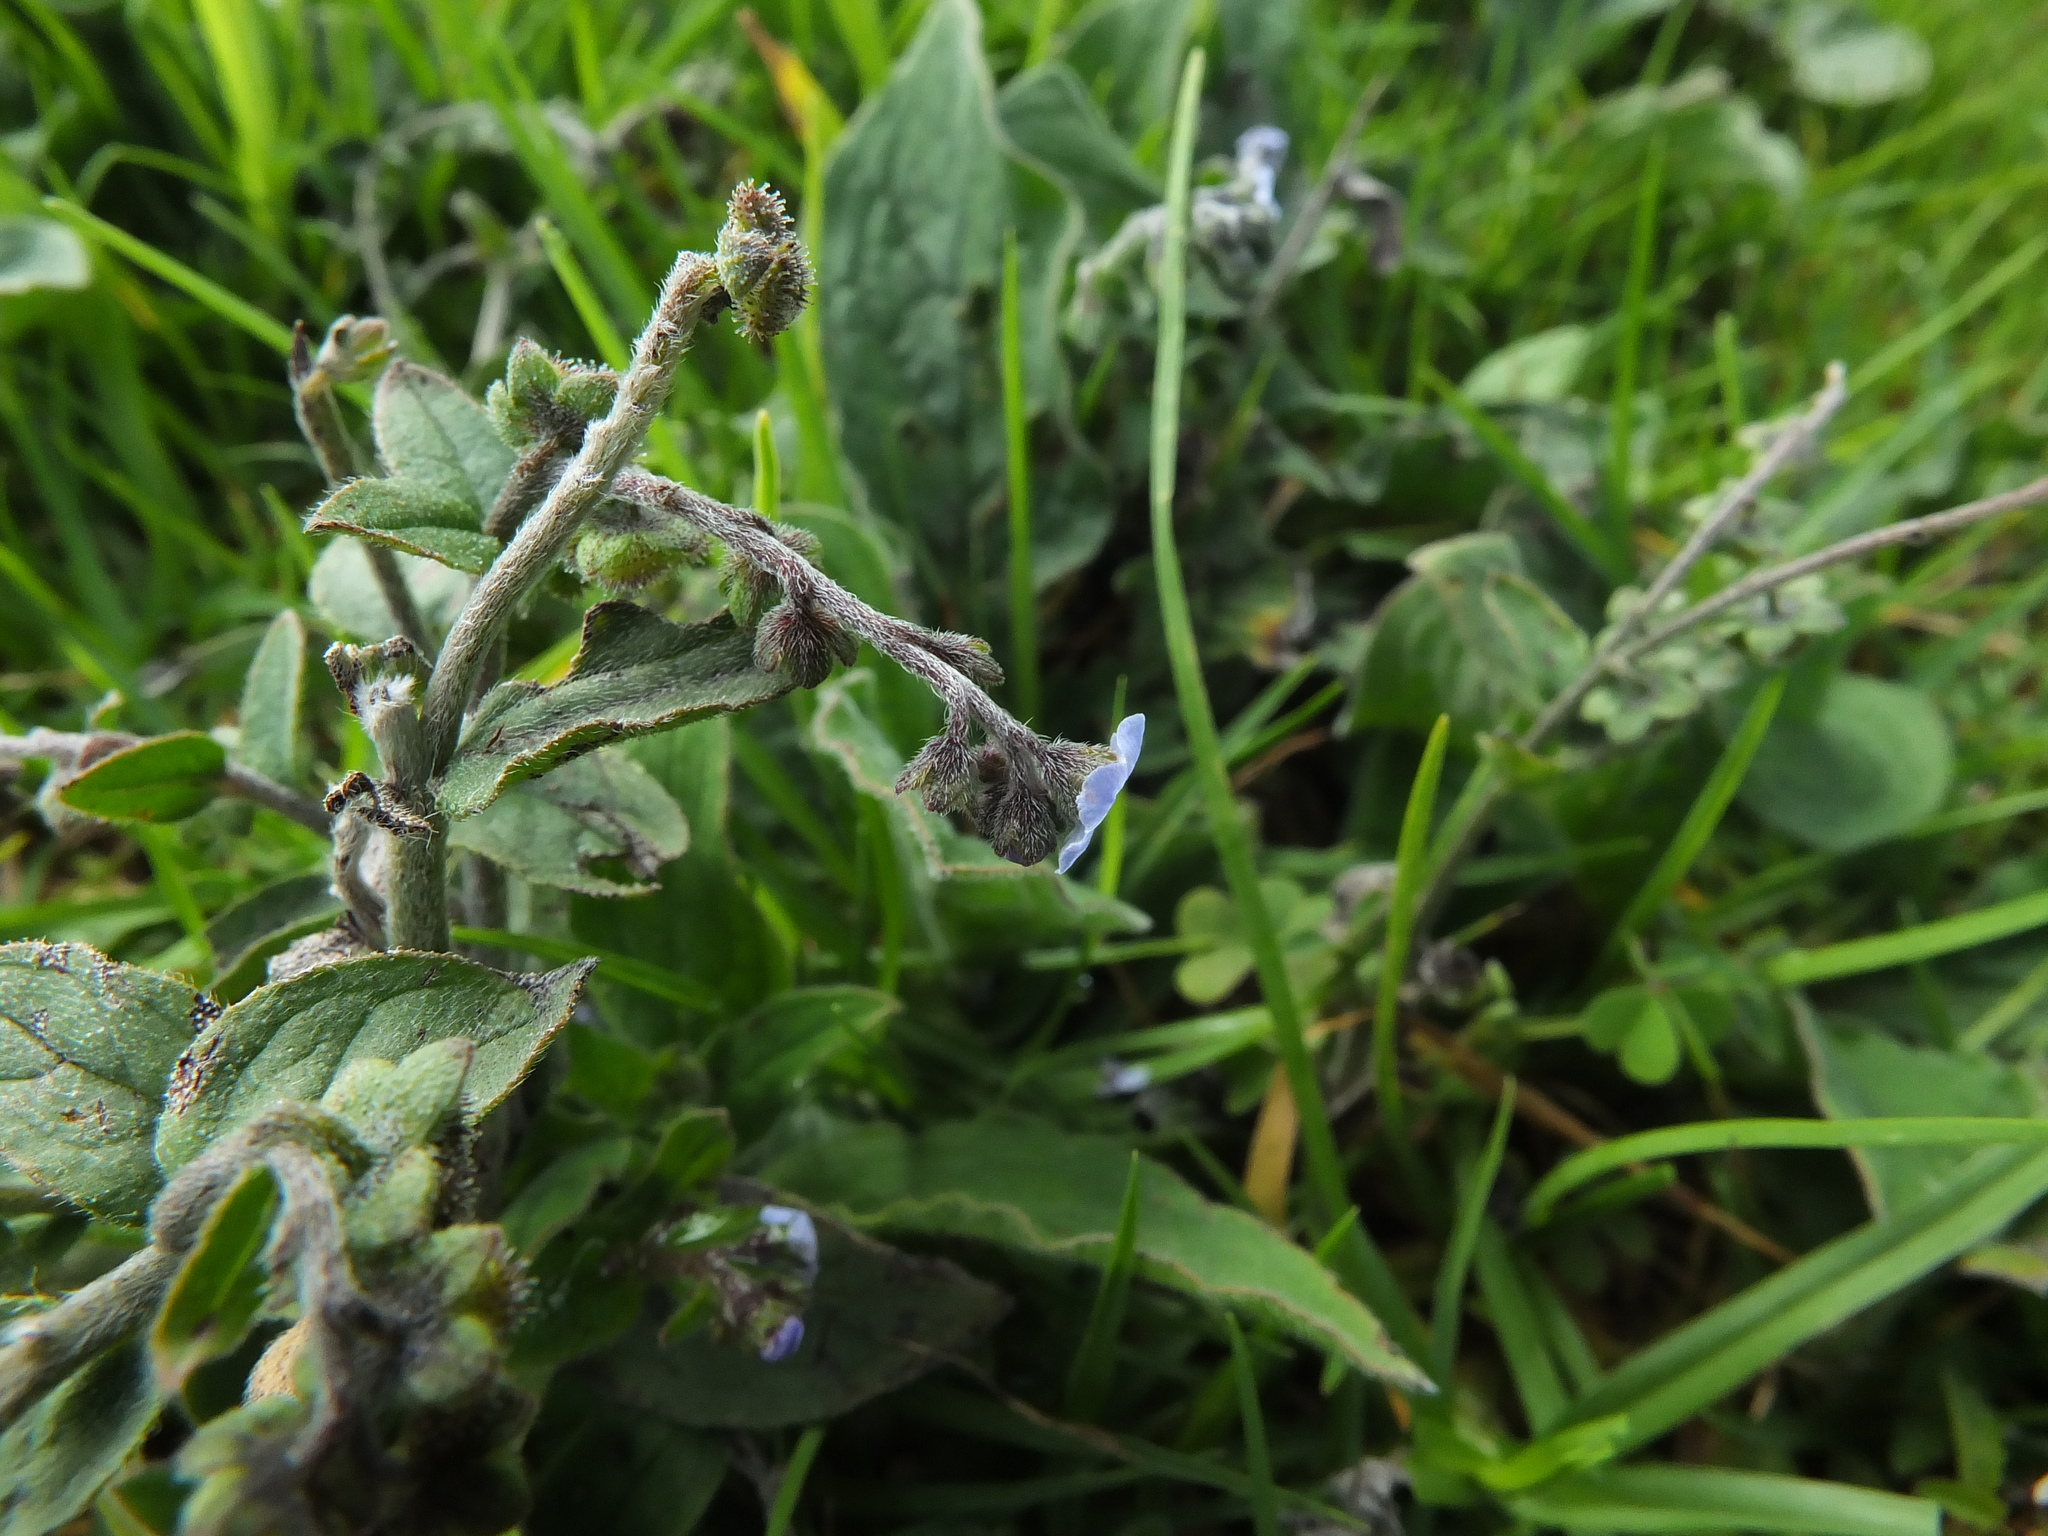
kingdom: Plantae
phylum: Tracheophyta
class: Magnoliopsida
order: Boraginales
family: Boraginaceae
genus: Cynoglossum
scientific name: Cynoglossum zeylanicum
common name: Ceylon hound's tongue
